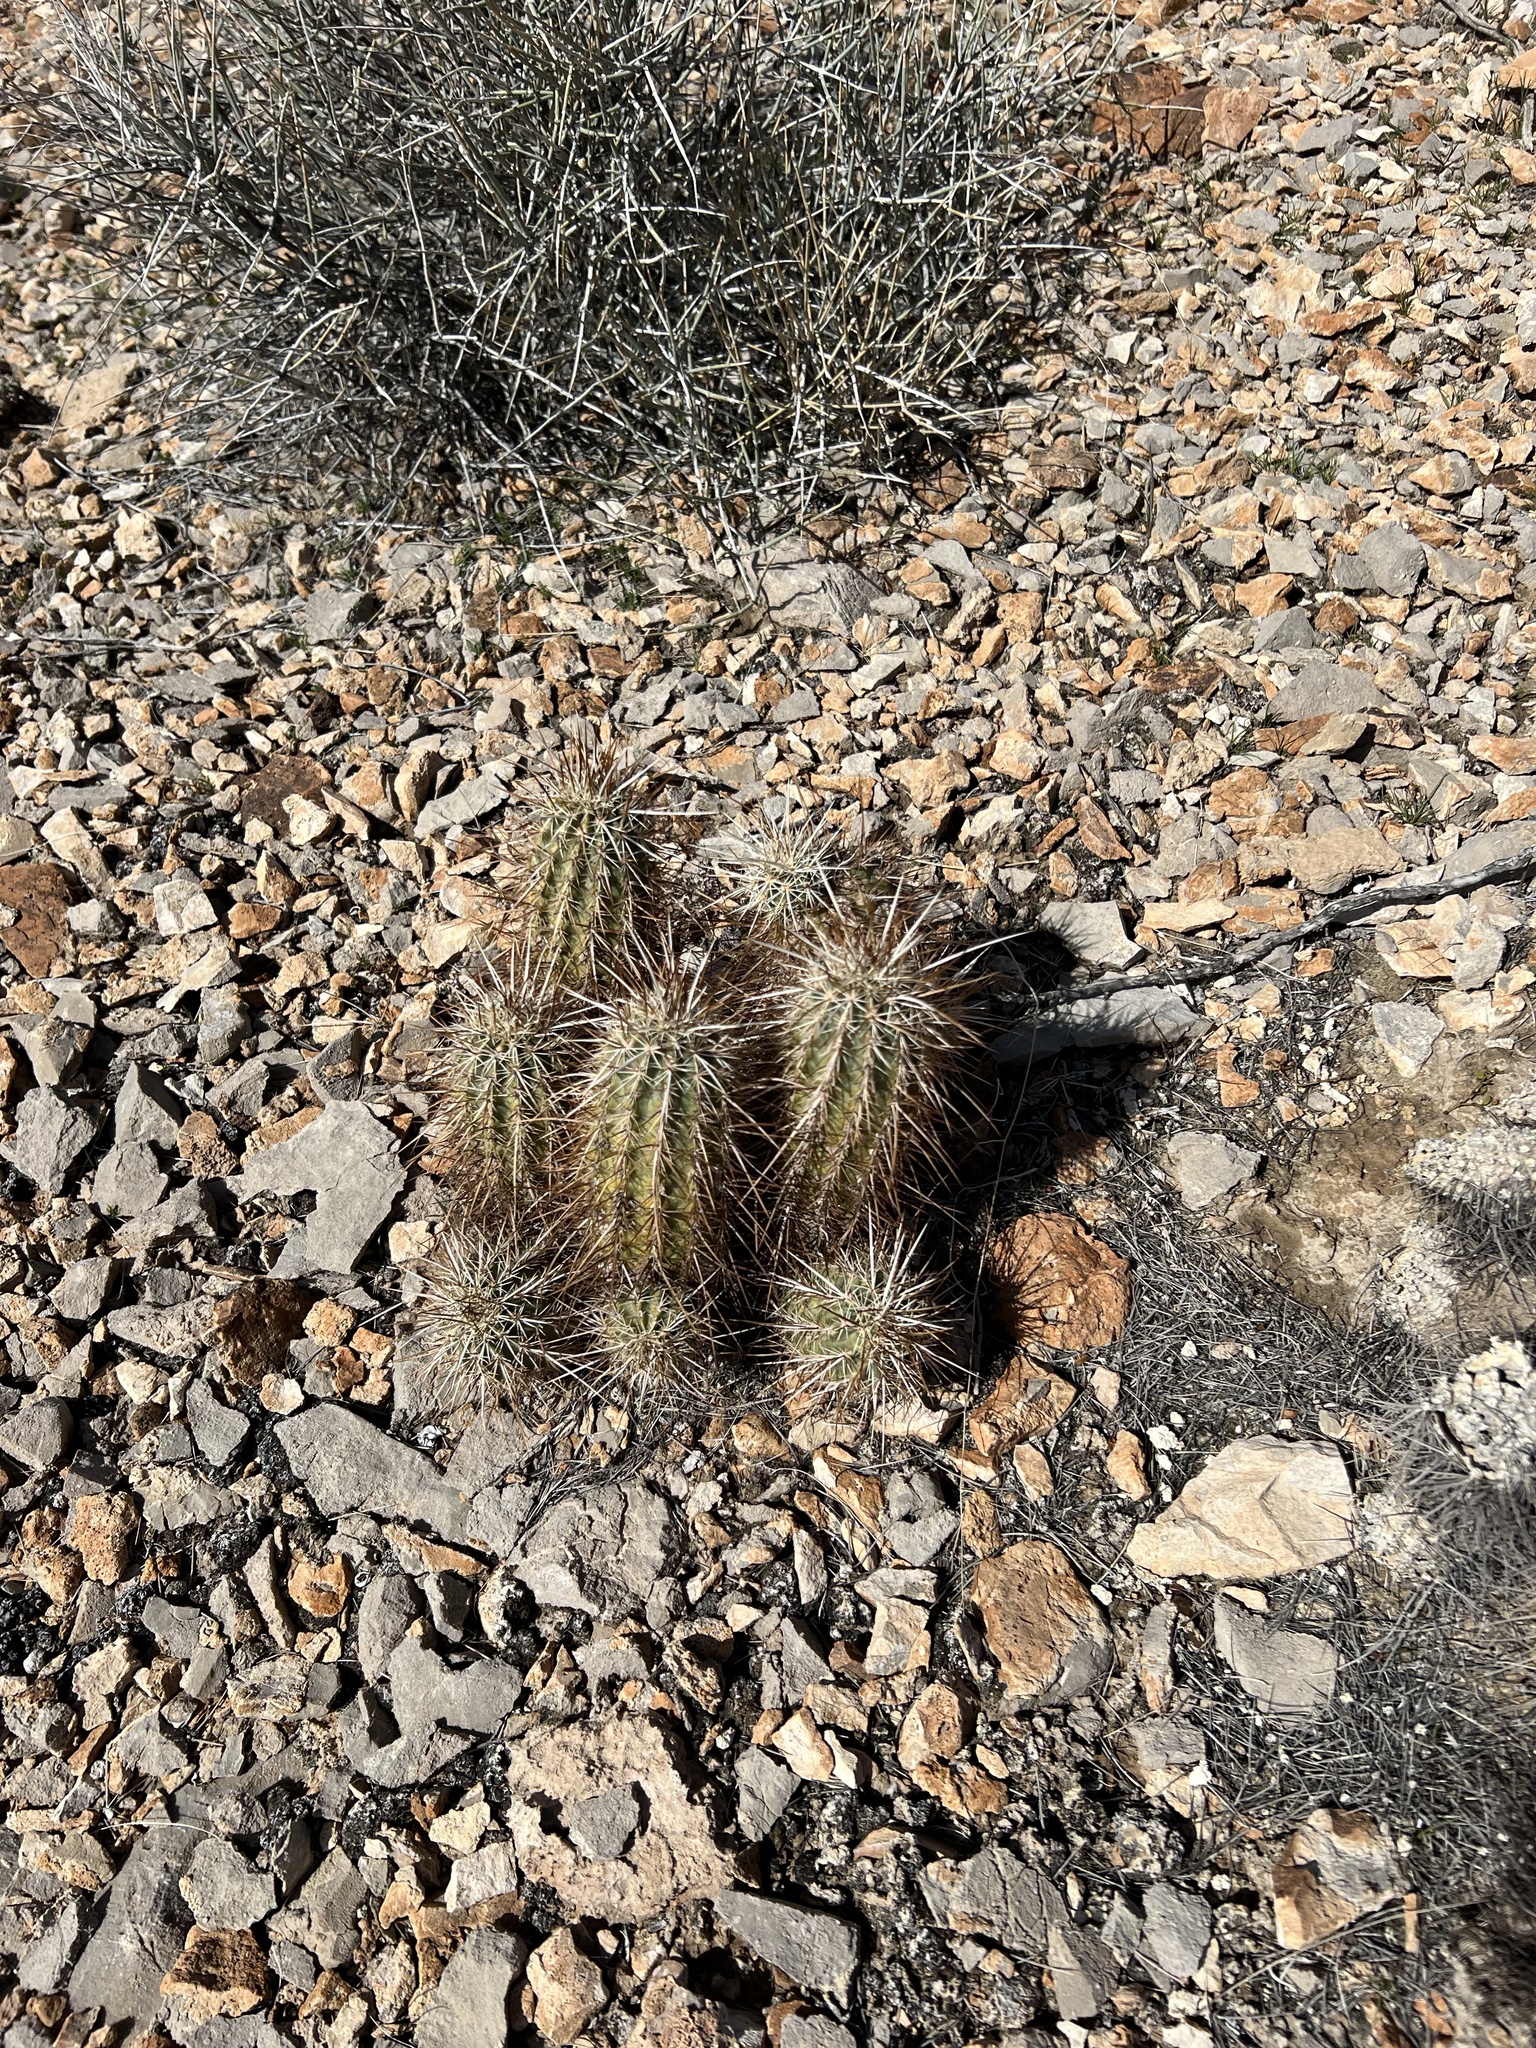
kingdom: Plantae
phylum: Tracheophyta
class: Magnoliopsida
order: Caryophyllales
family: Cactaceae
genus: Echinocereus
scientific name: Echinocereus engelmannii
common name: Engelmann's hedgehog cactus
